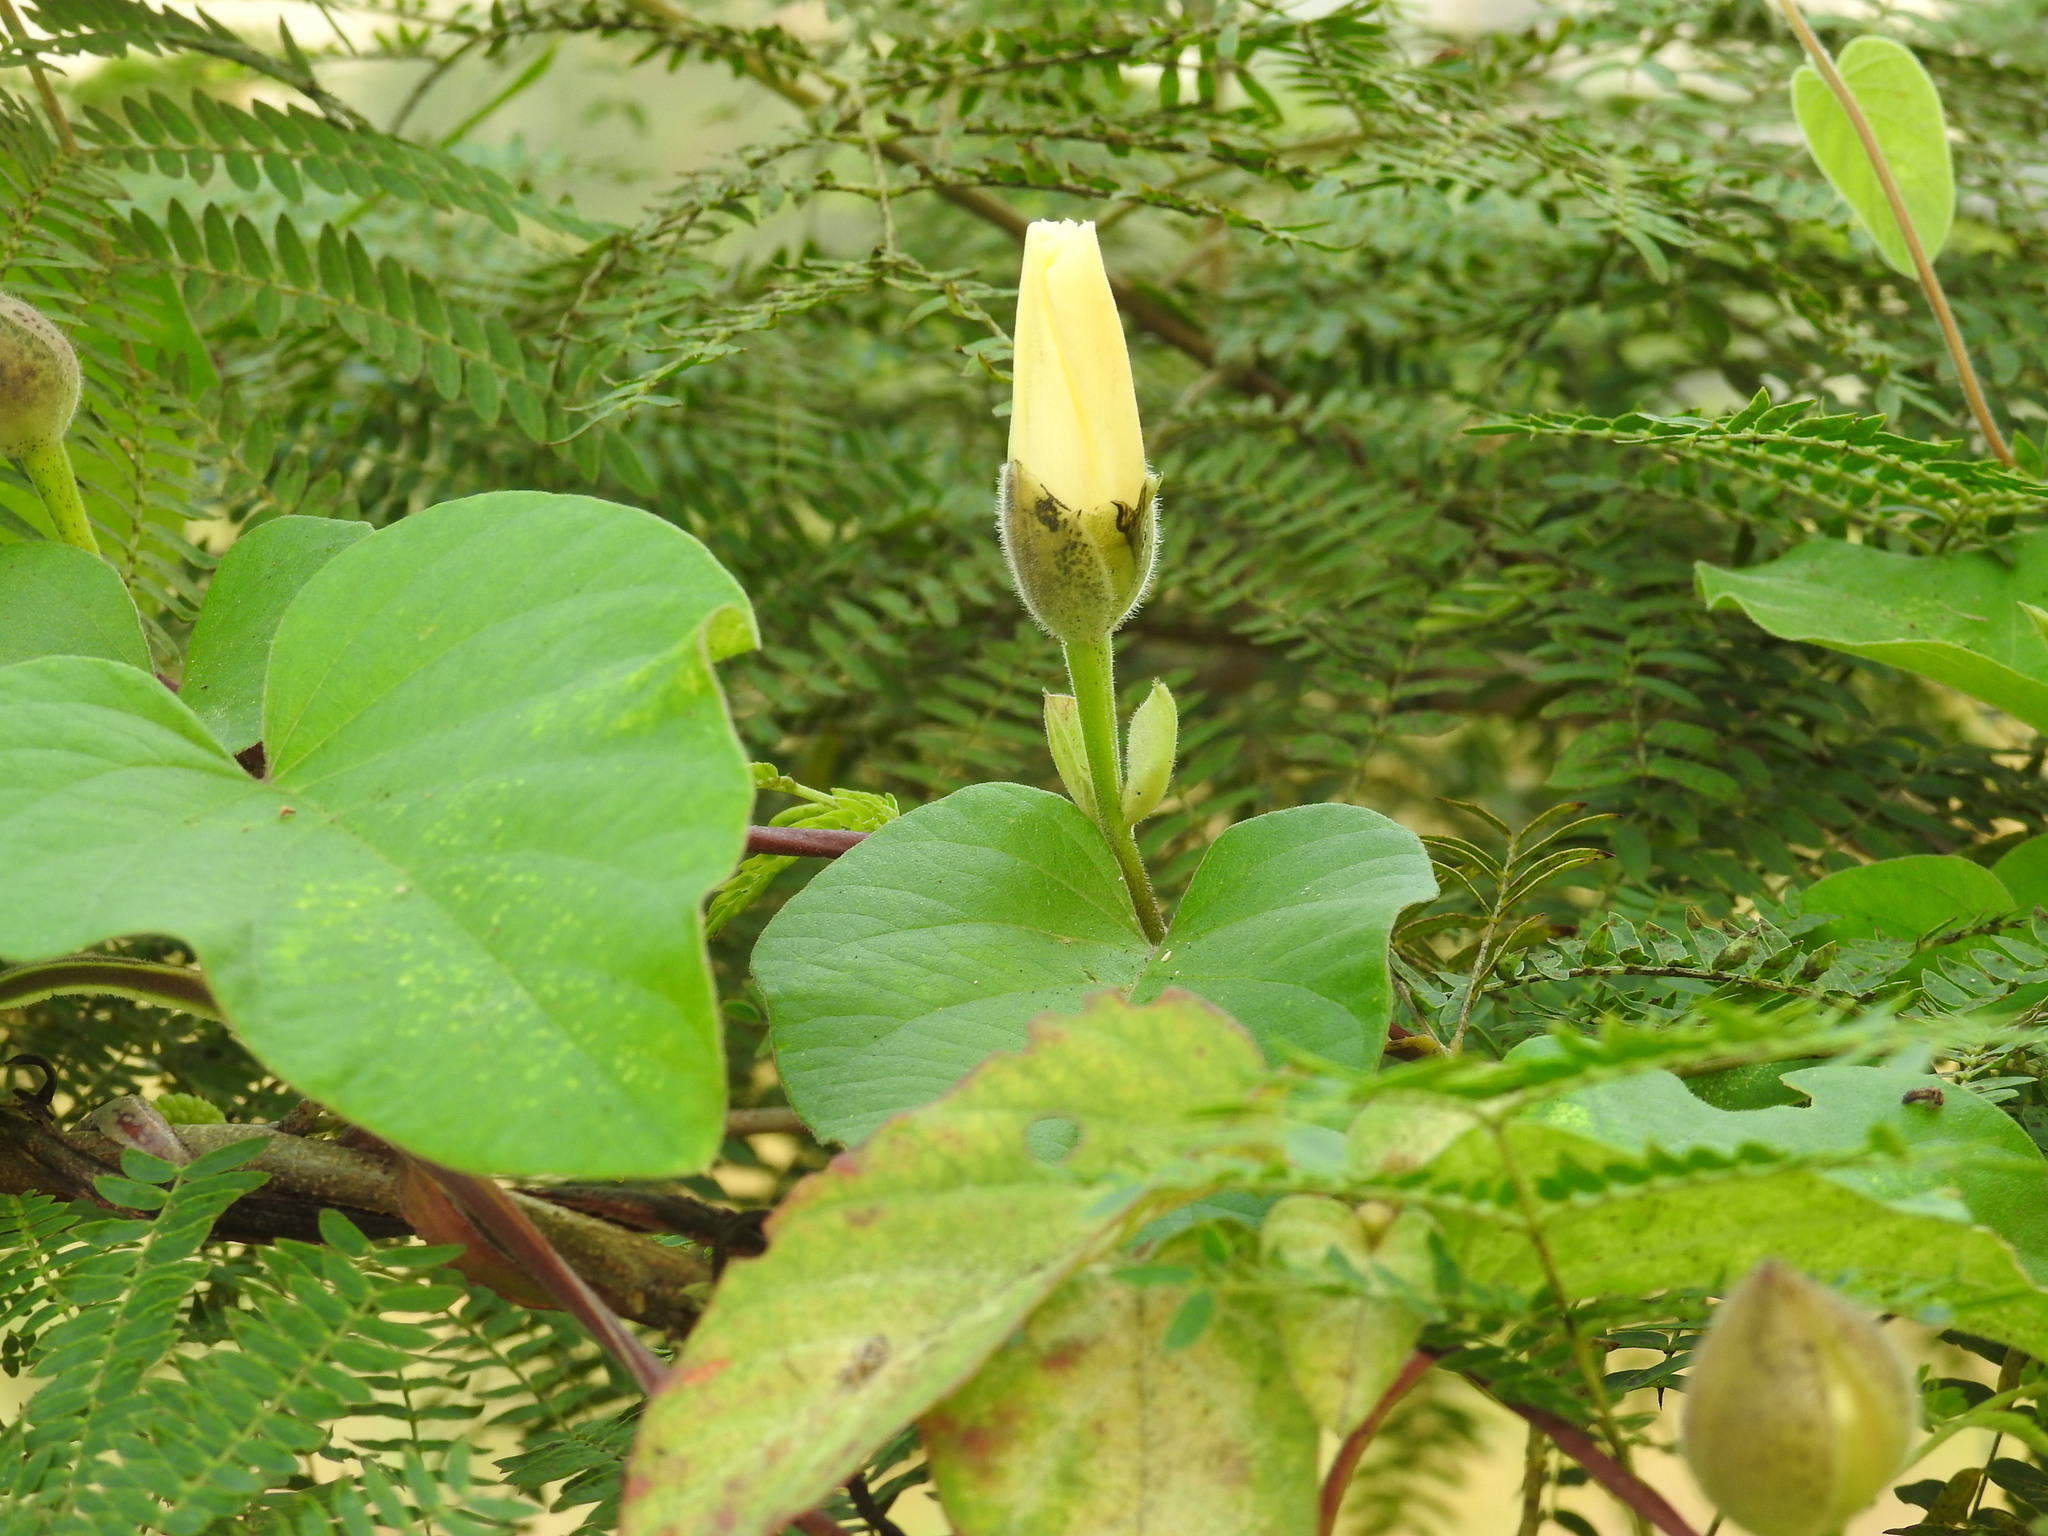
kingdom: Plantae
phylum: Tracheophyta
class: Magnoliopsida
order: Solanales
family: Convolvulaceae
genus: Operculina
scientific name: Operculina turpethum
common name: Transparent wood-rose
